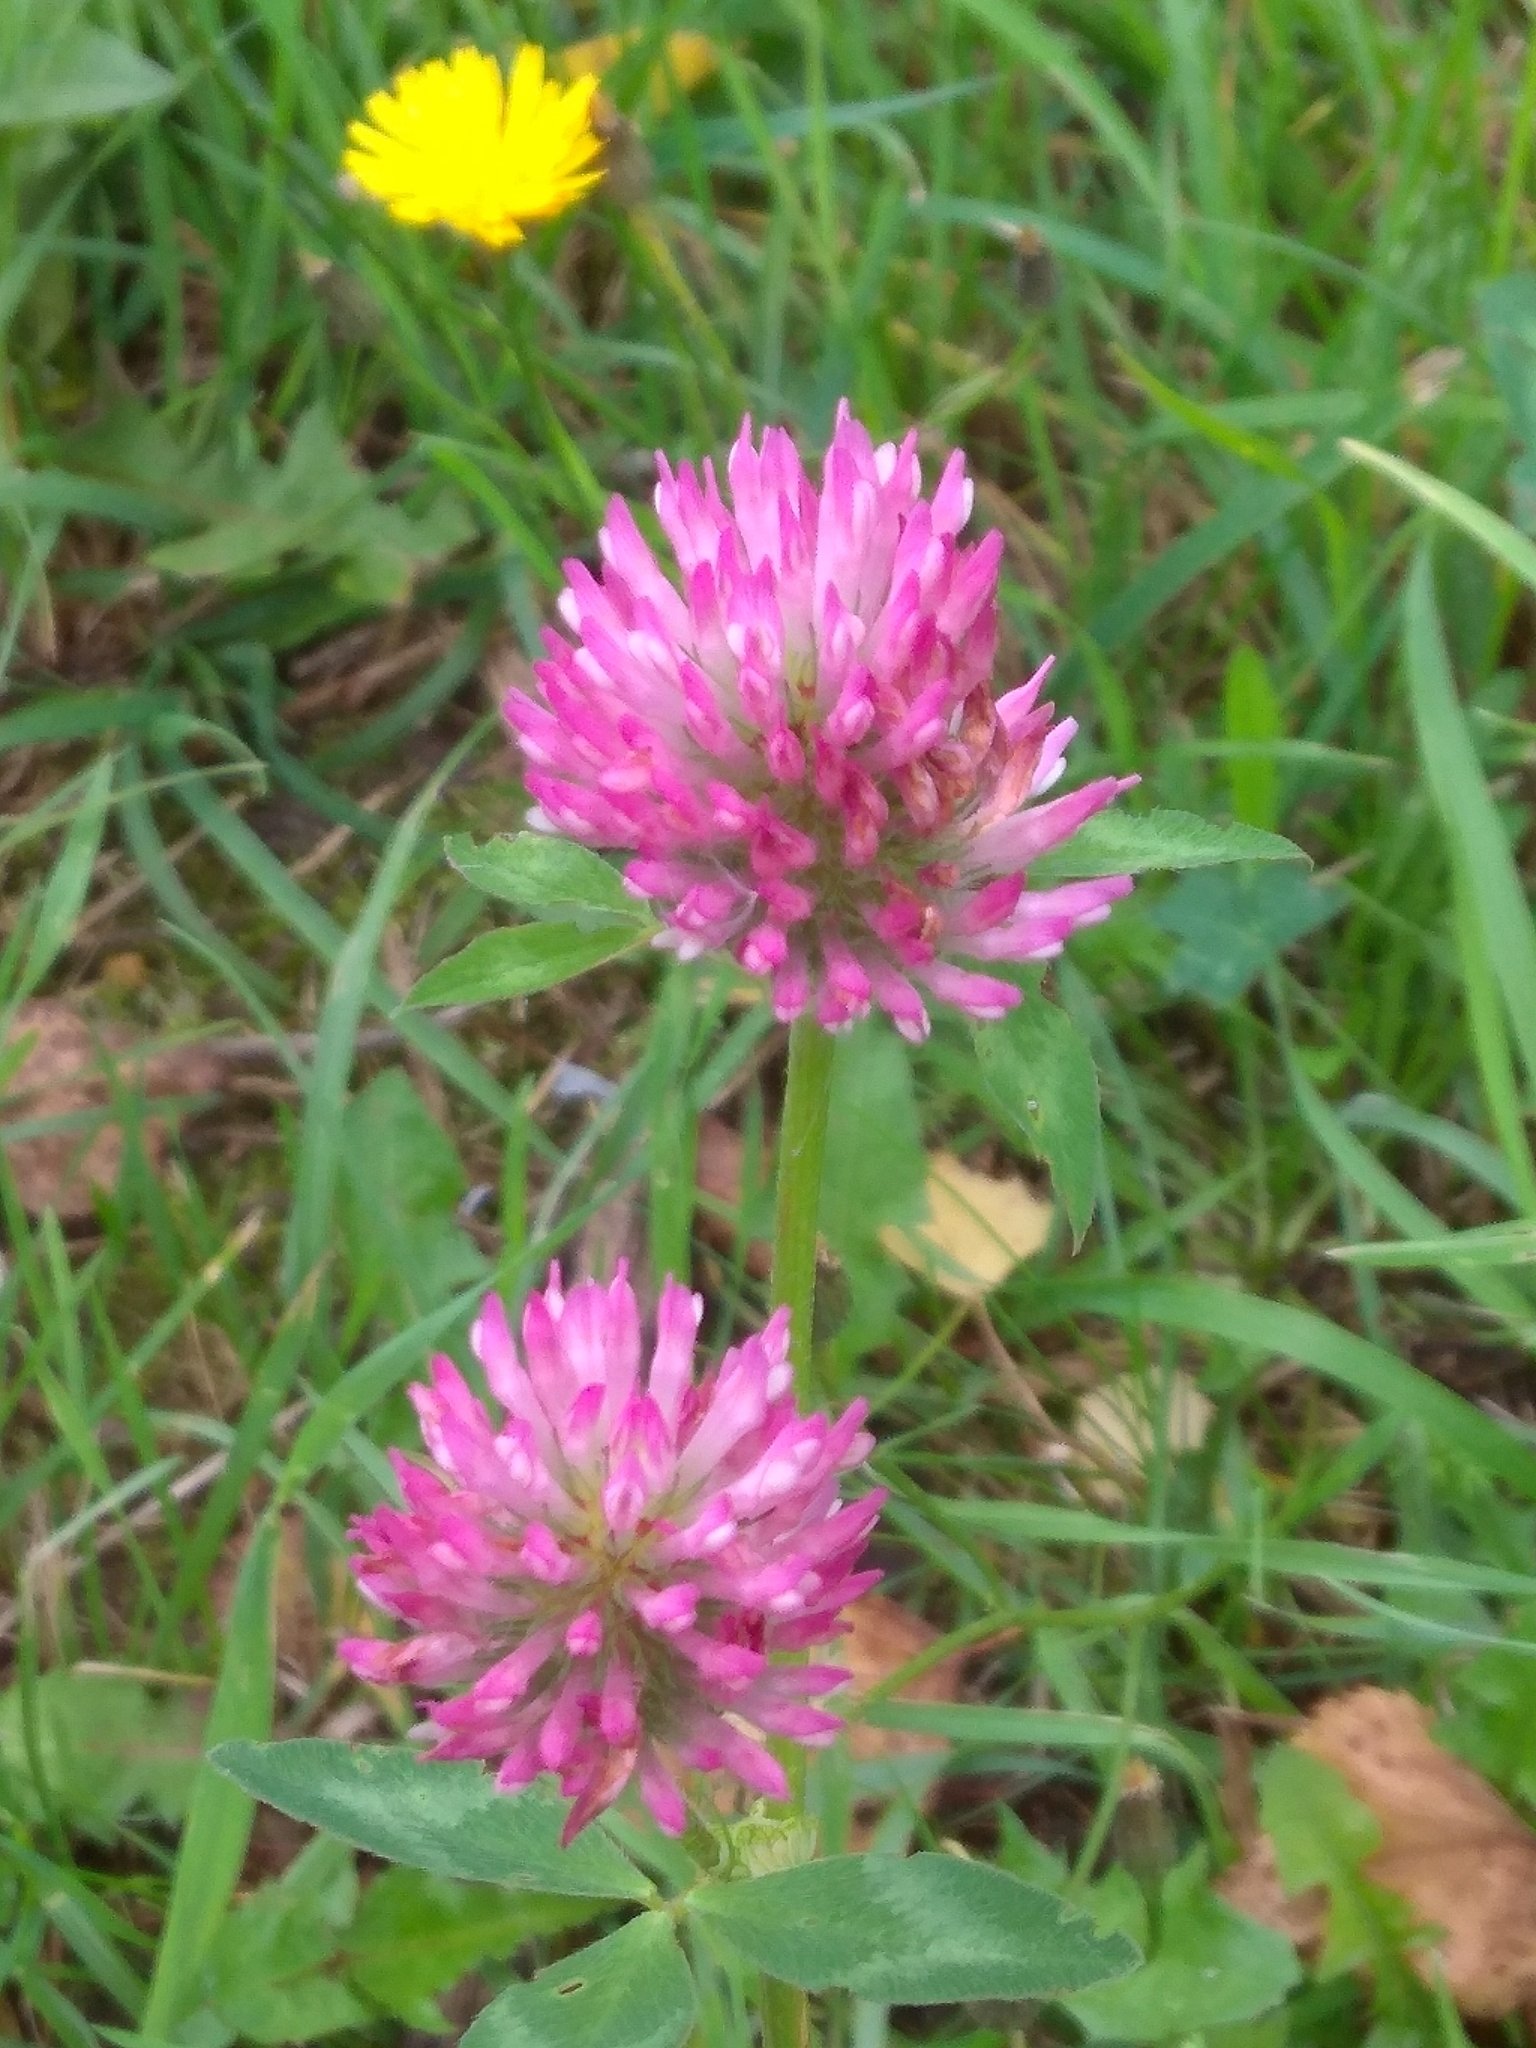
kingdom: Plantae
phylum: Tracheophyta
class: Magnoliopsida
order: Fabales
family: Fabaceae
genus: Trifolium
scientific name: Trifolium pratense
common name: Red clover
